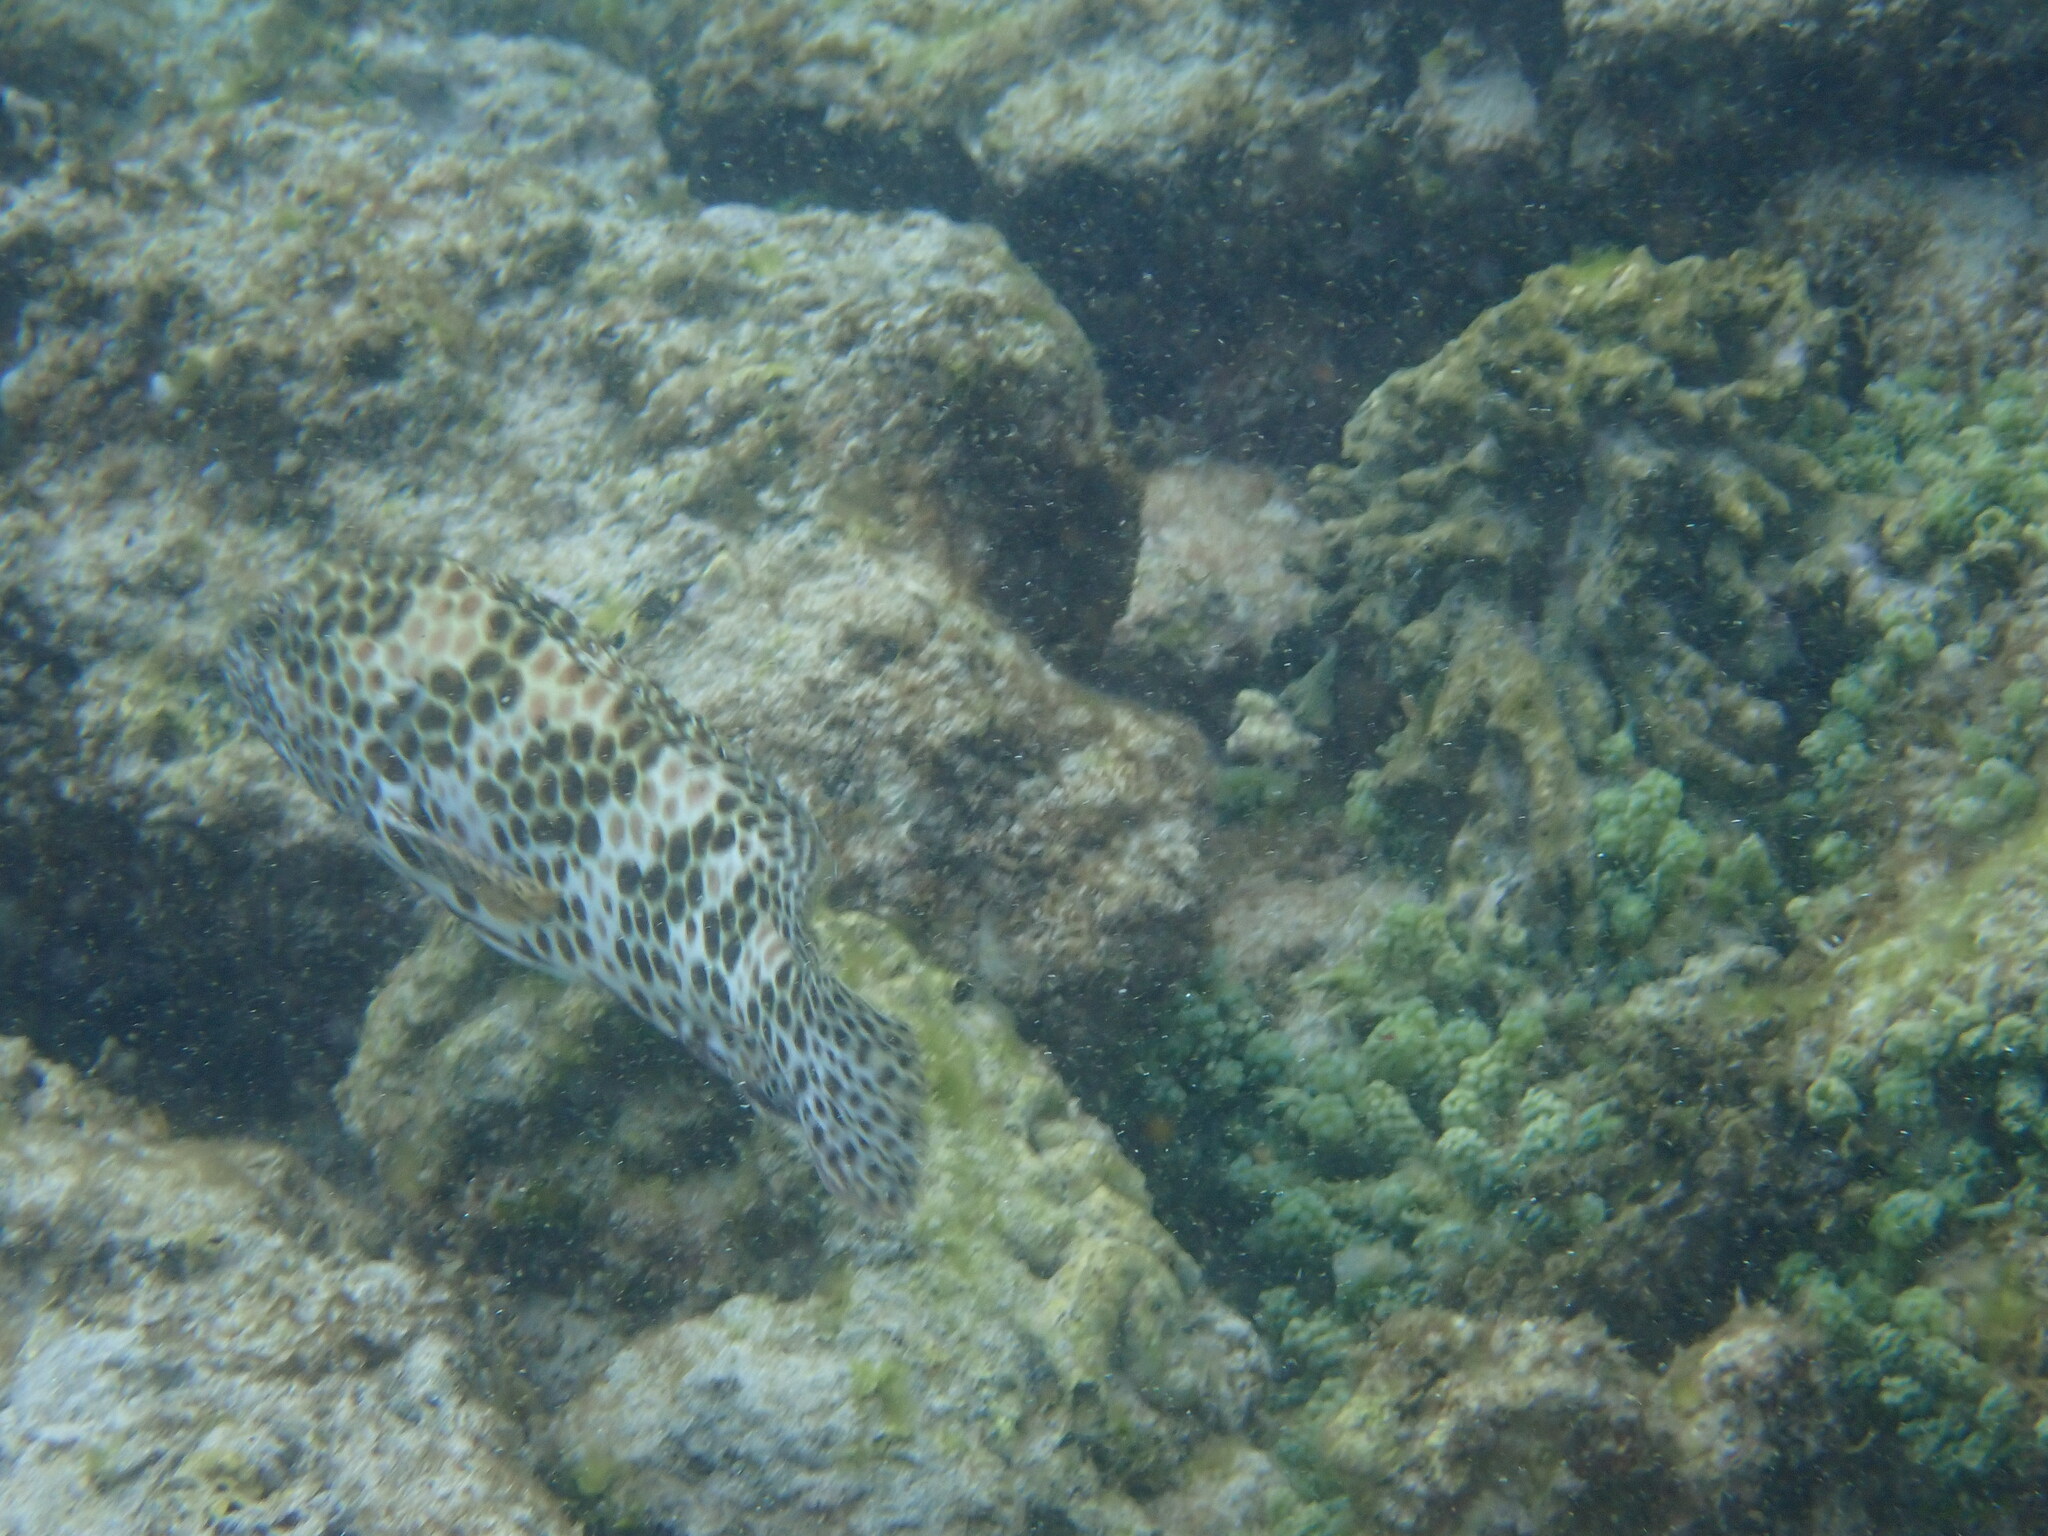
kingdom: Animalia
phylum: Chordata
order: Perciformes
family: Serranidae
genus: Epinephelus
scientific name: Epinephelus merra
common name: Honeycomb grouper
